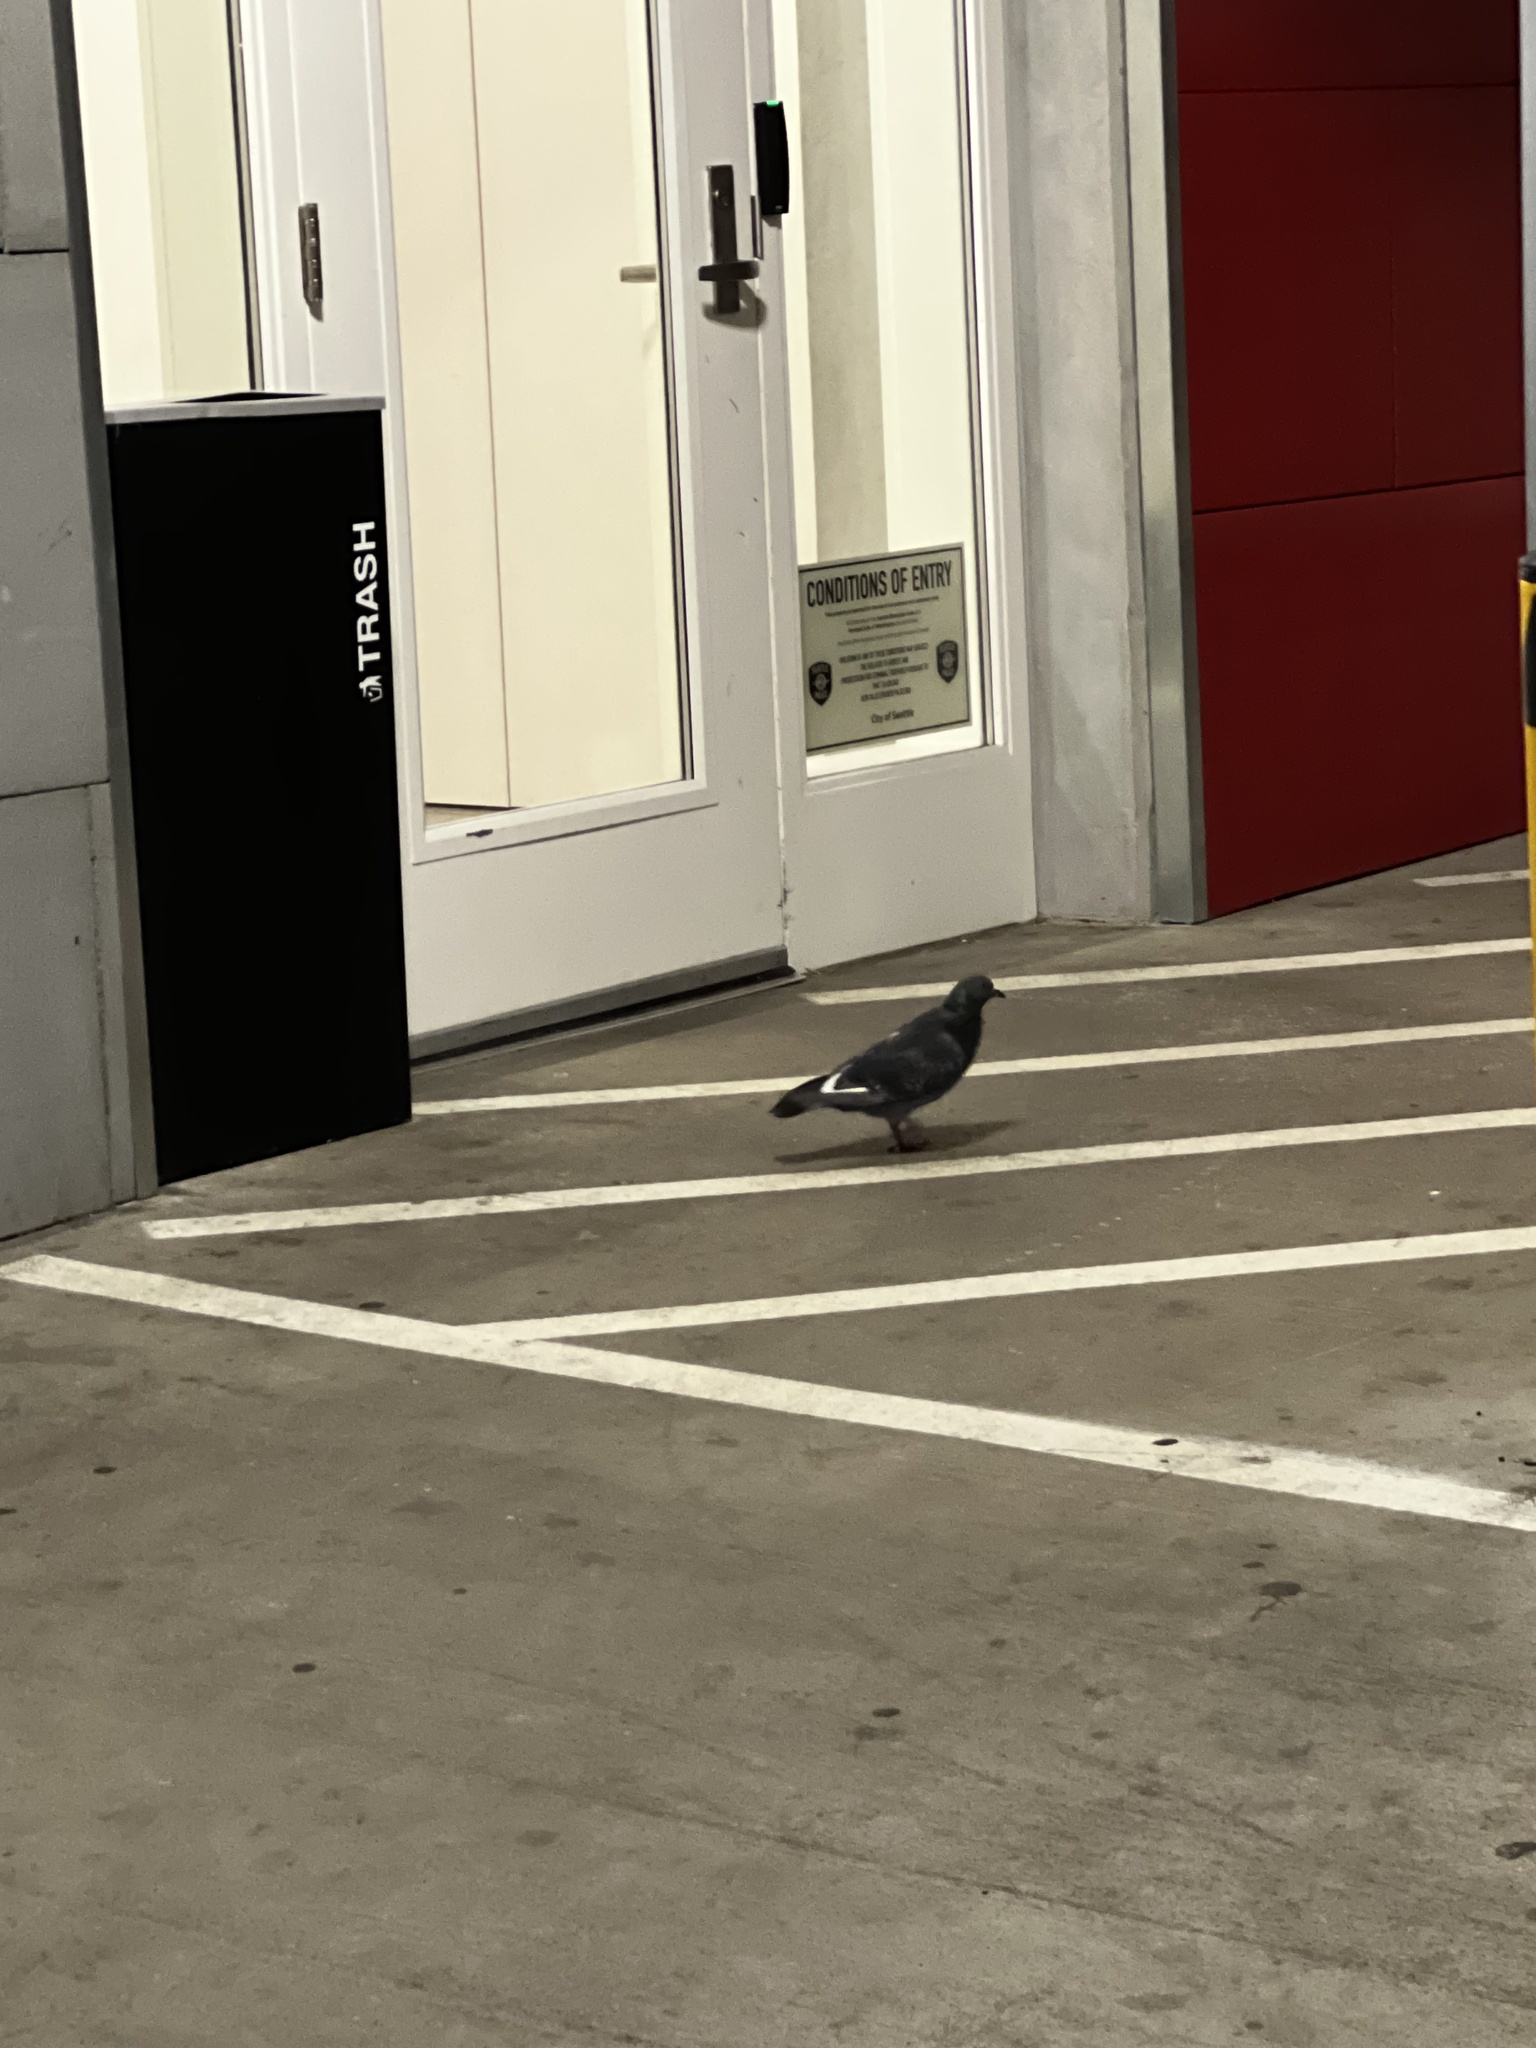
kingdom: Animalia
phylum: Chordata
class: Aves
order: Columbiformes
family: Columbidae
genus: Columba
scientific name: Columba livia
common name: Rock pigeon
